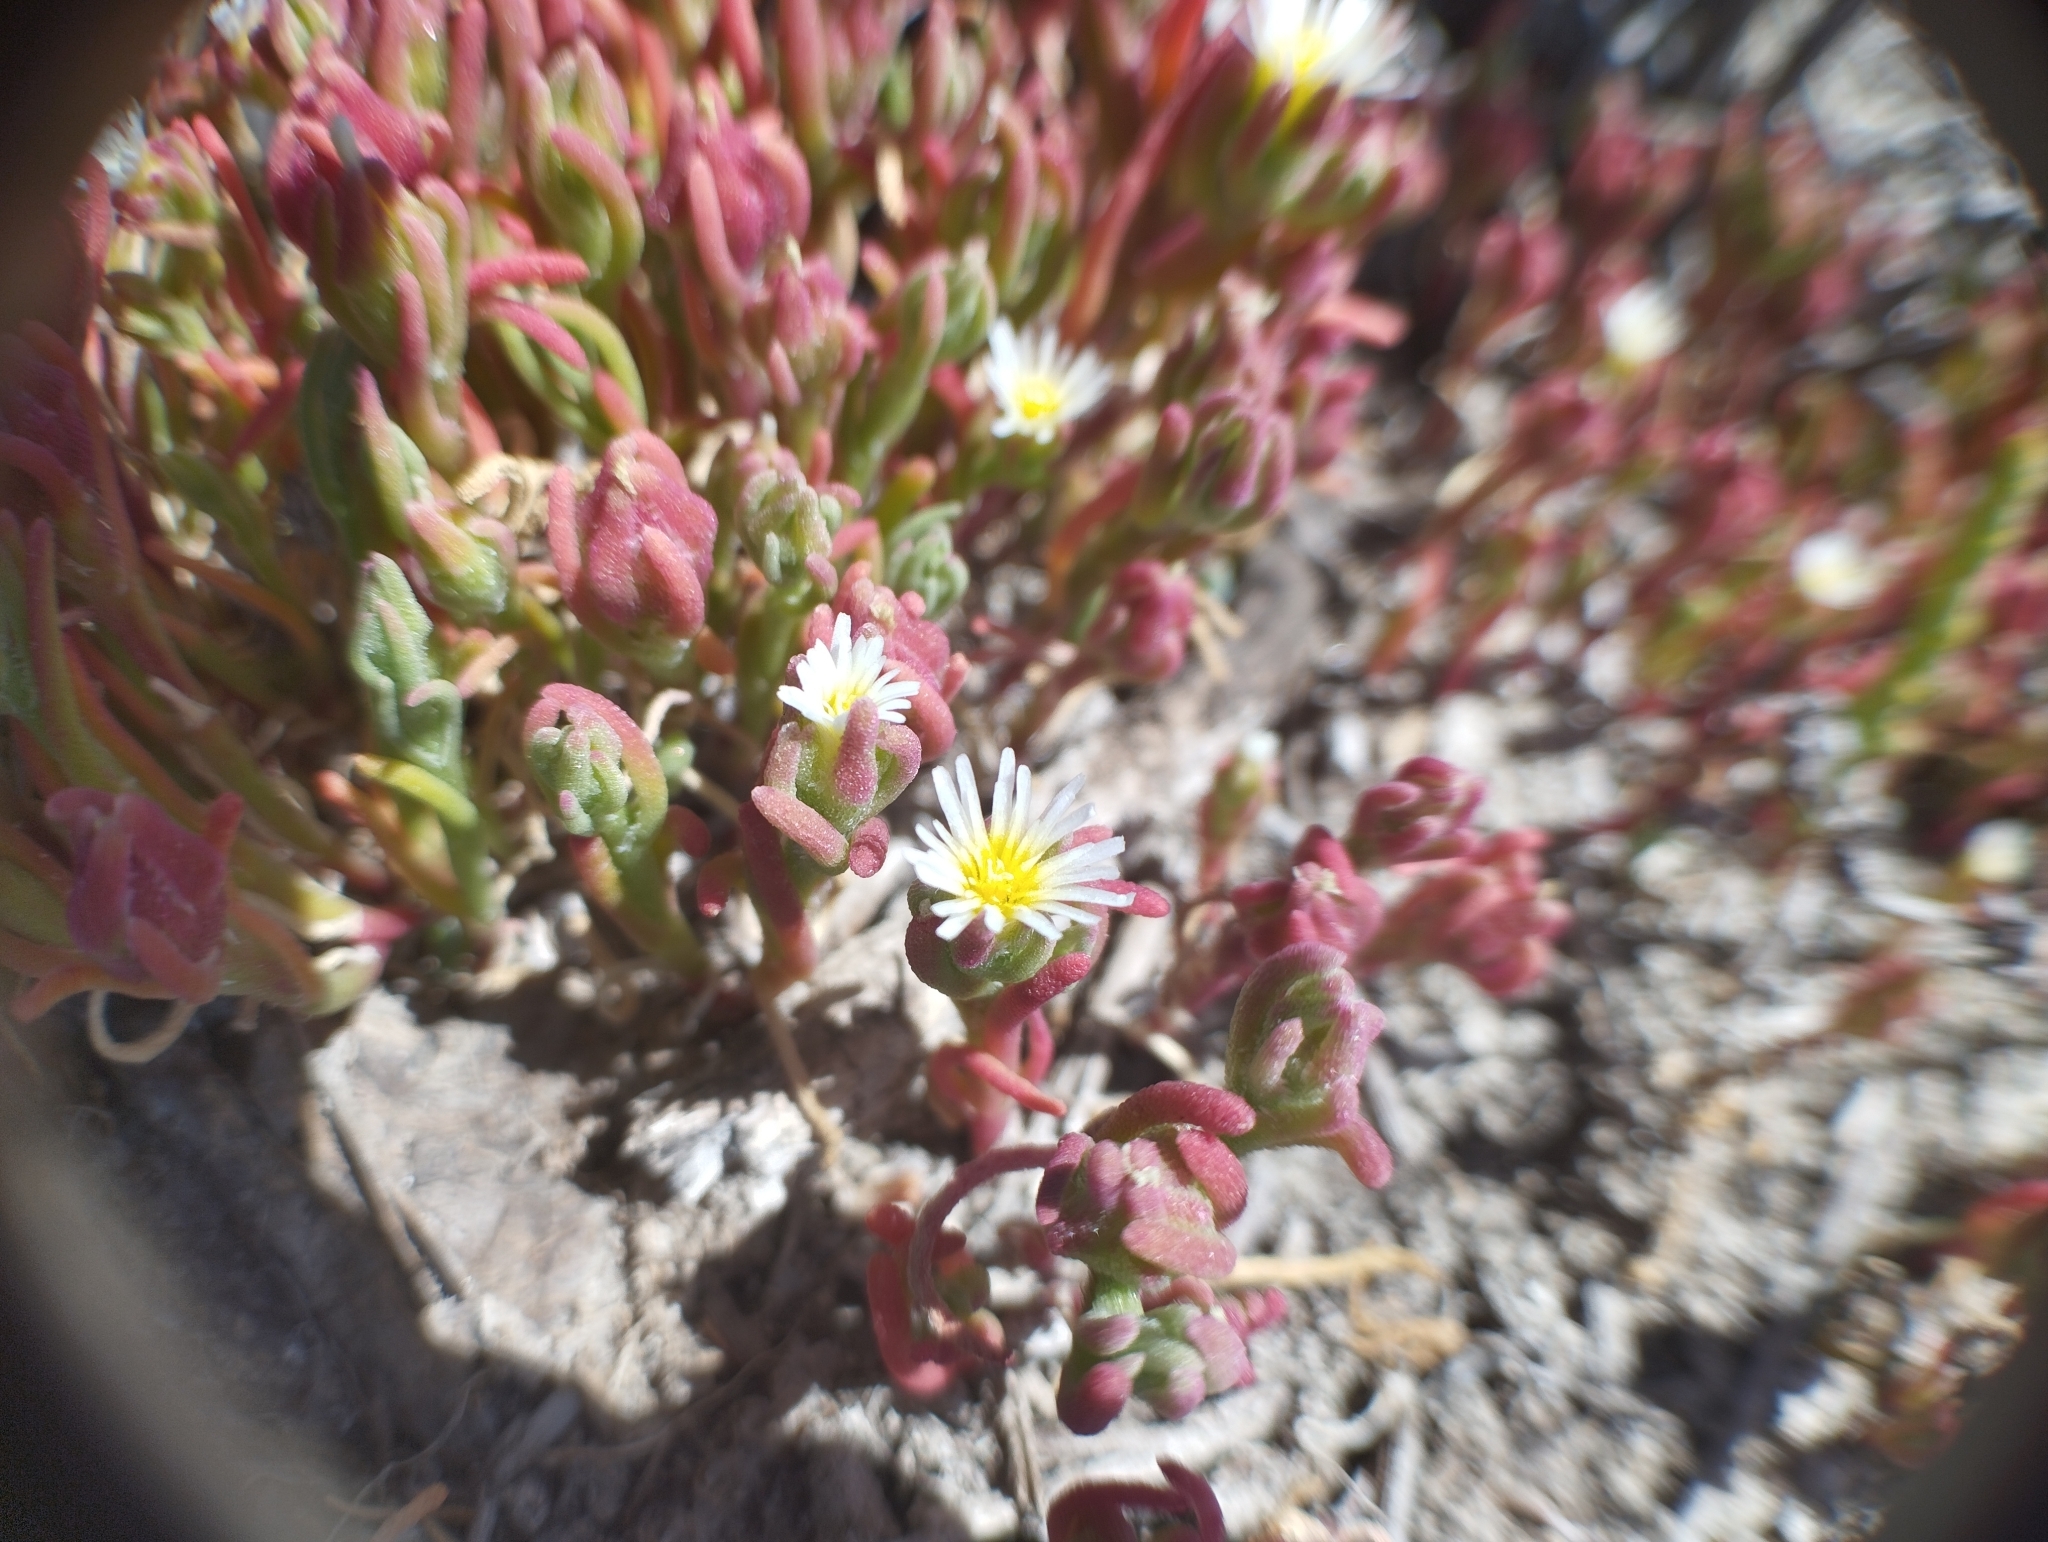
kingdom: Plantae
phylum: Tracheophyta
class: Magnoliopsida
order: Caryophyllales
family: Aizoaceae
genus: Mesembryanthemum
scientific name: Mesembryanthemum nodiflorum
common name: Slenderleaf iceplant
